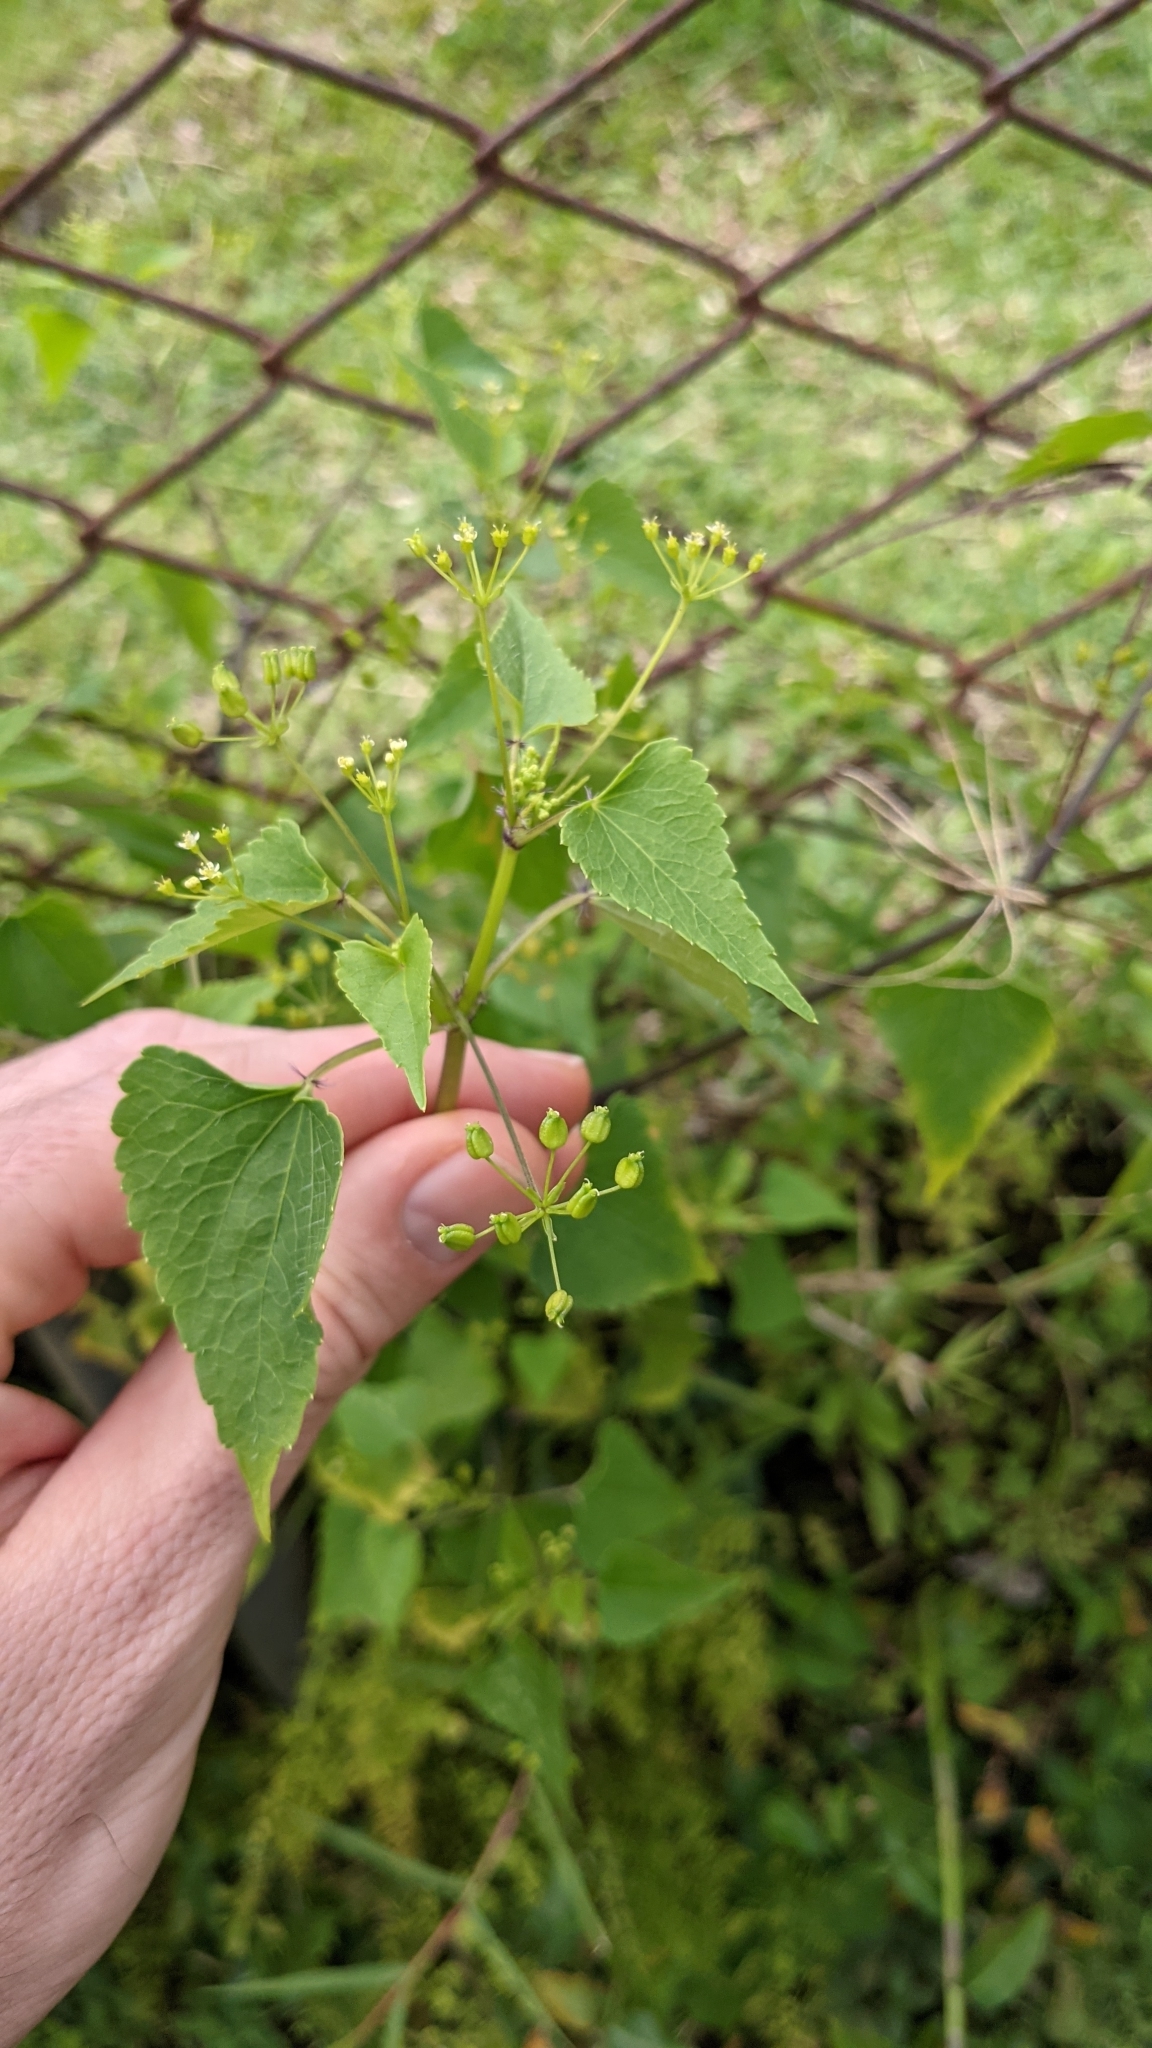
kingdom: Plantae
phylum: Tracheophyta
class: Magnoliopsida
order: Apiales
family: Apiaceae
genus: Spananthe
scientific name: Spananthe paniculata
